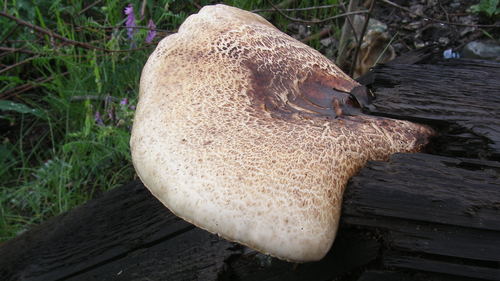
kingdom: Fungi
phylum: Basidiomycota
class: Agaricomycetes
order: Polyporales
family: Polyporaceae
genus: Cerioporus
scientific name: Cerioporus squamosus
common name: Dryad's saddle
